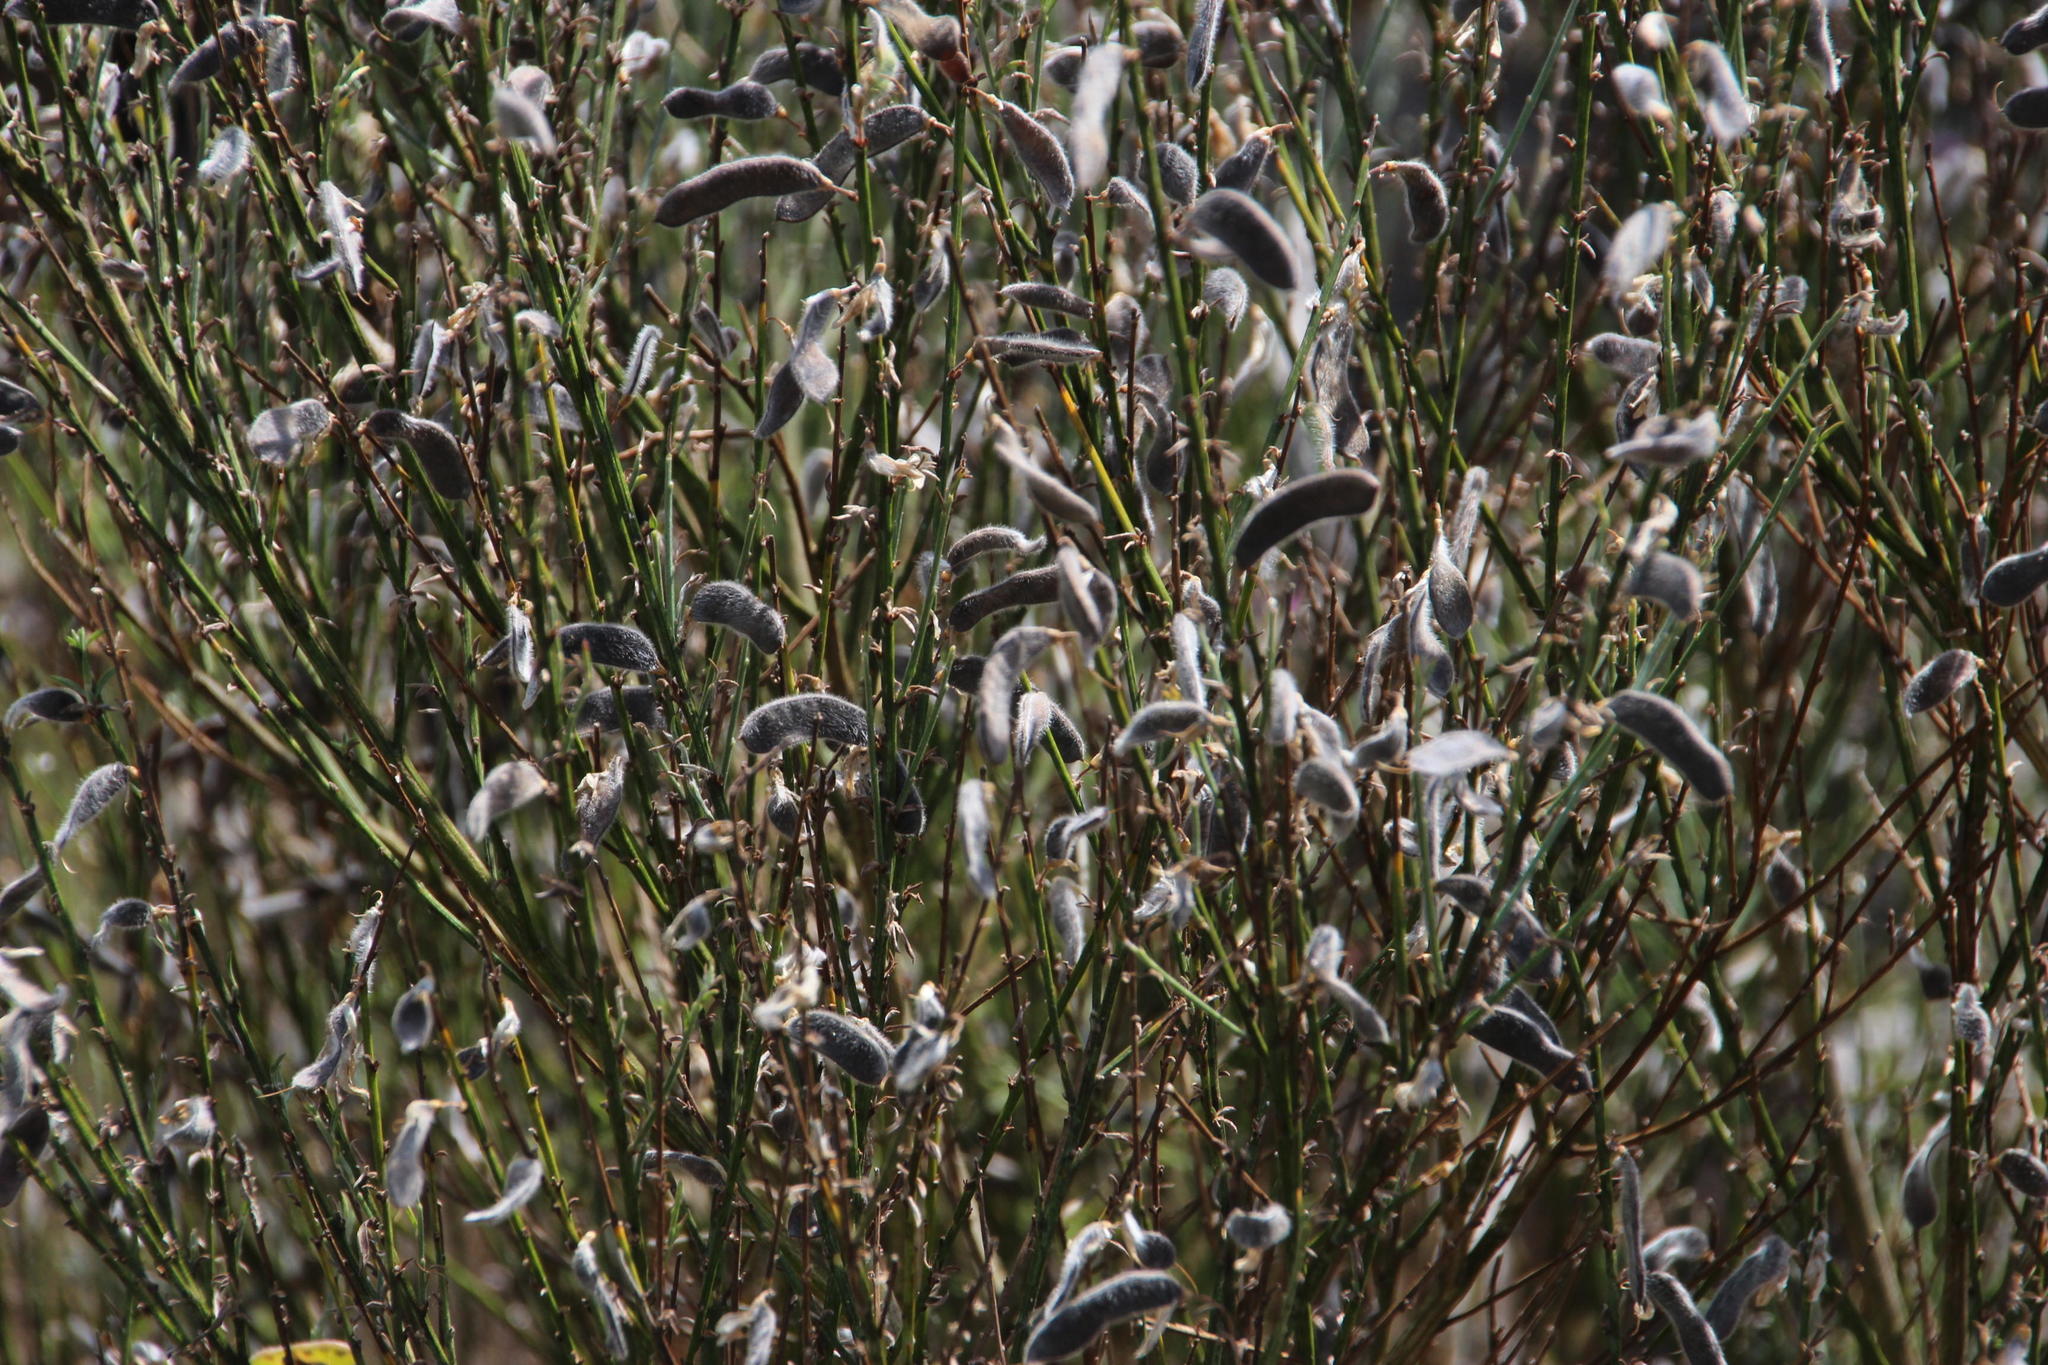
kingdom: Plantae
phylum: Tracheophyta
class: Magnoliopsida
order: Fabales
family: Fabaceae
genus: Cytisus
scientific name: Cytisus multiflorus
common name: White broom
